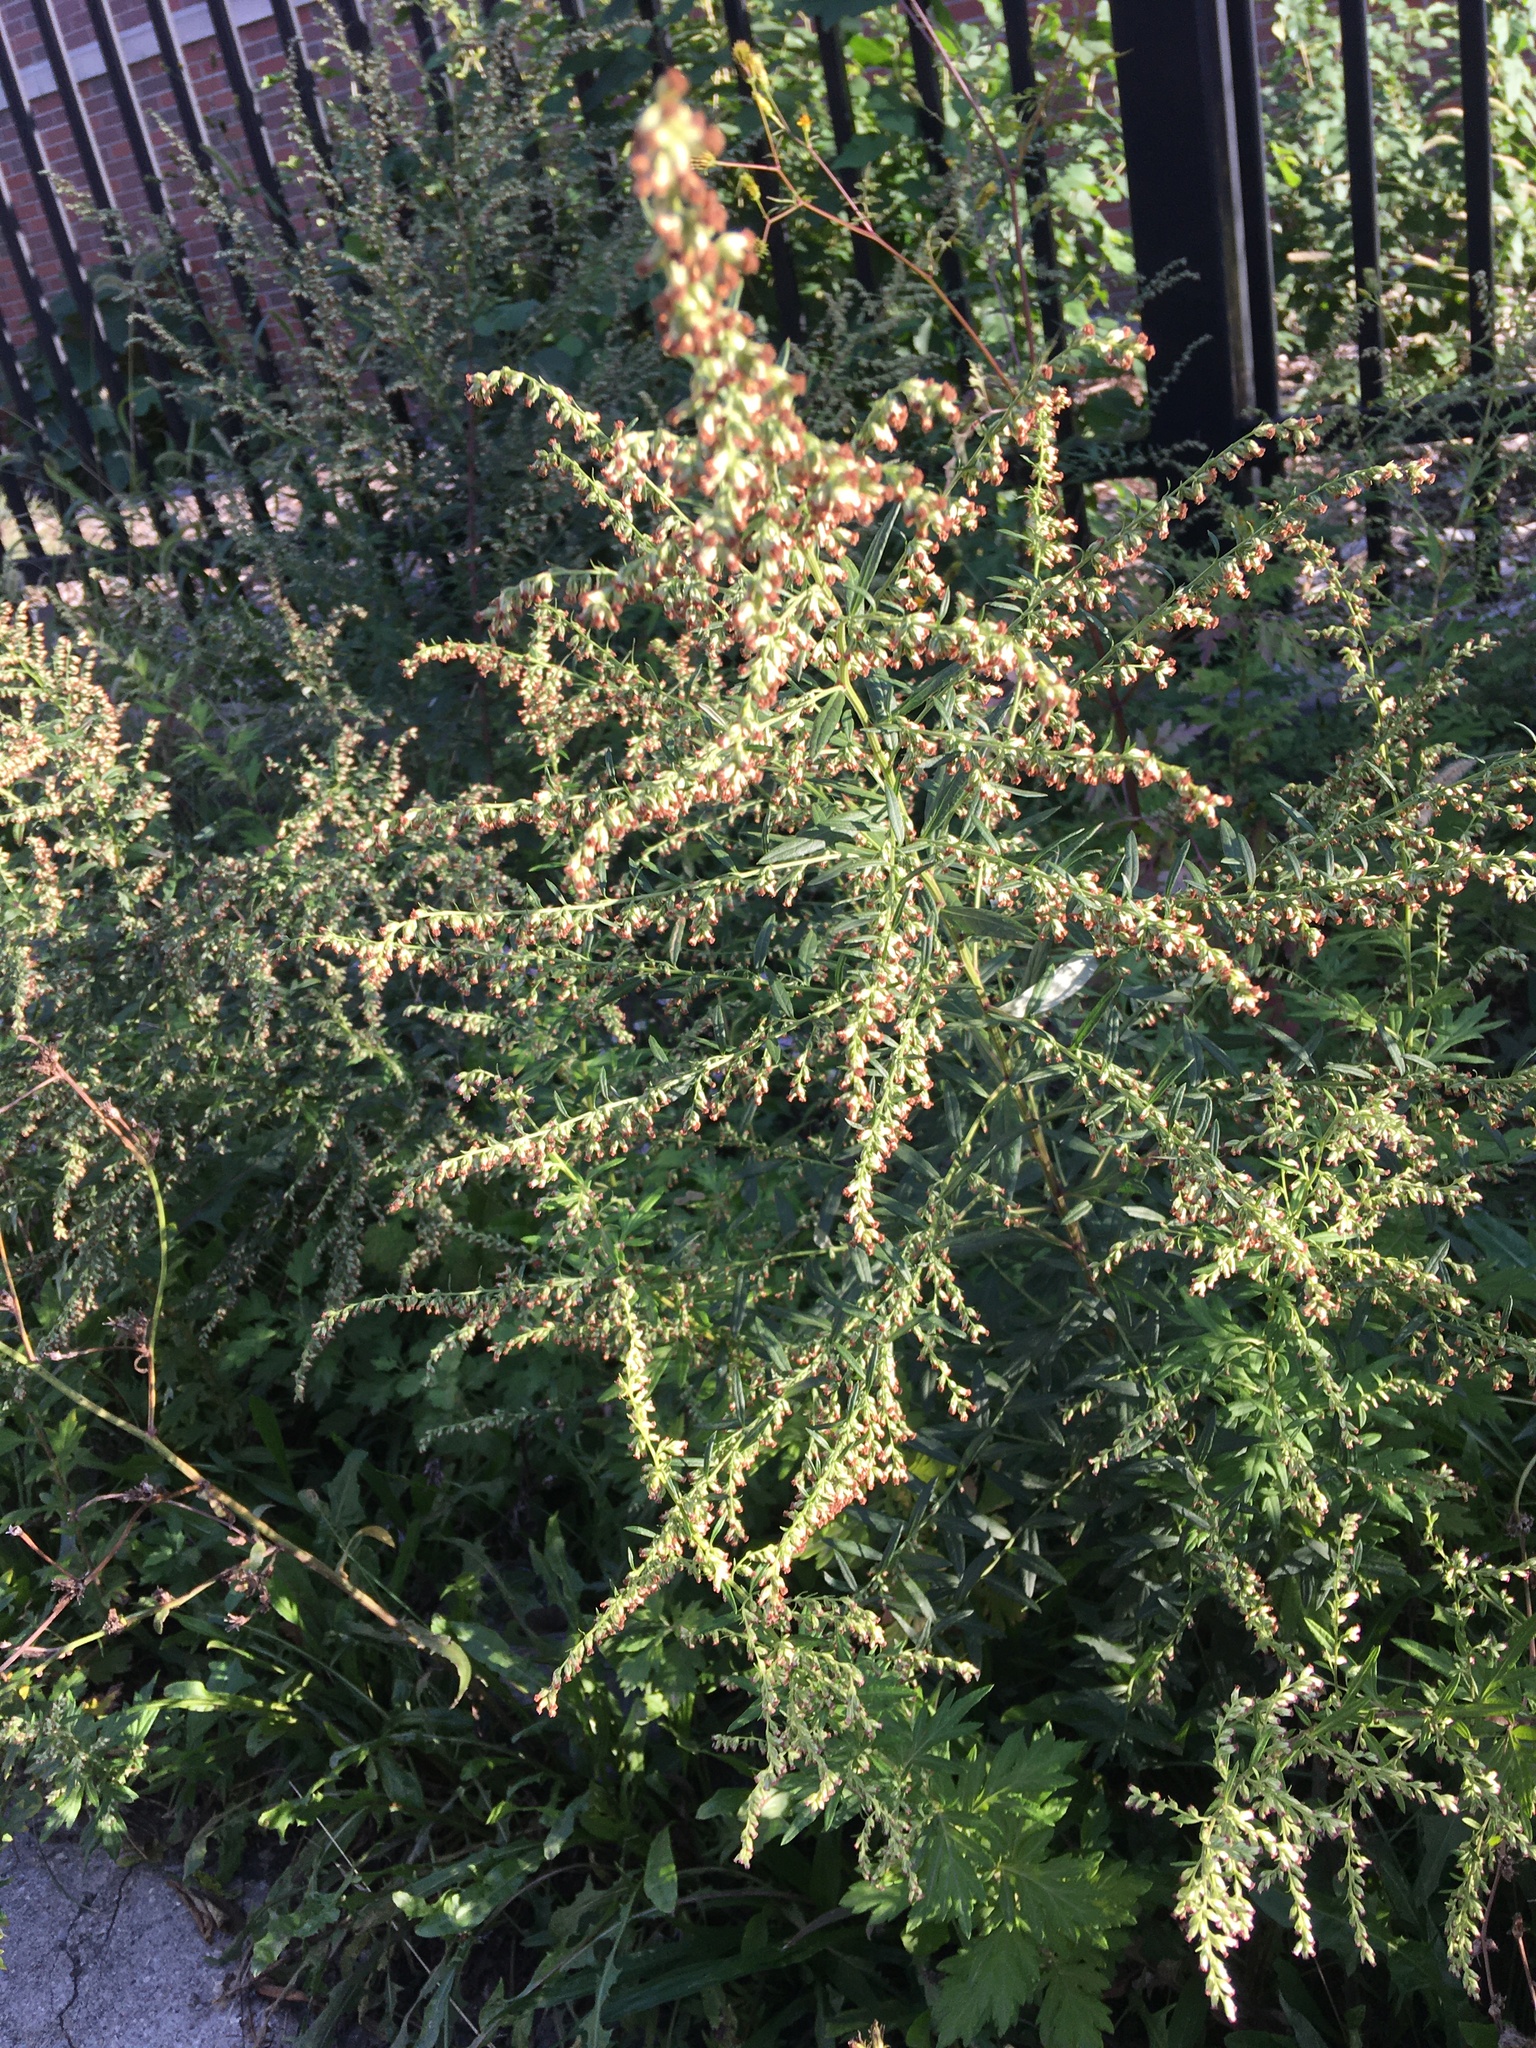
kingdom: Plantae
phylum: Tracheophyta
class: Magnoliopsida
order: Asterales
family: Asteraceae
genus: Artemisia
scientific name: Artemisia vulgaris
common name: Mugwort
